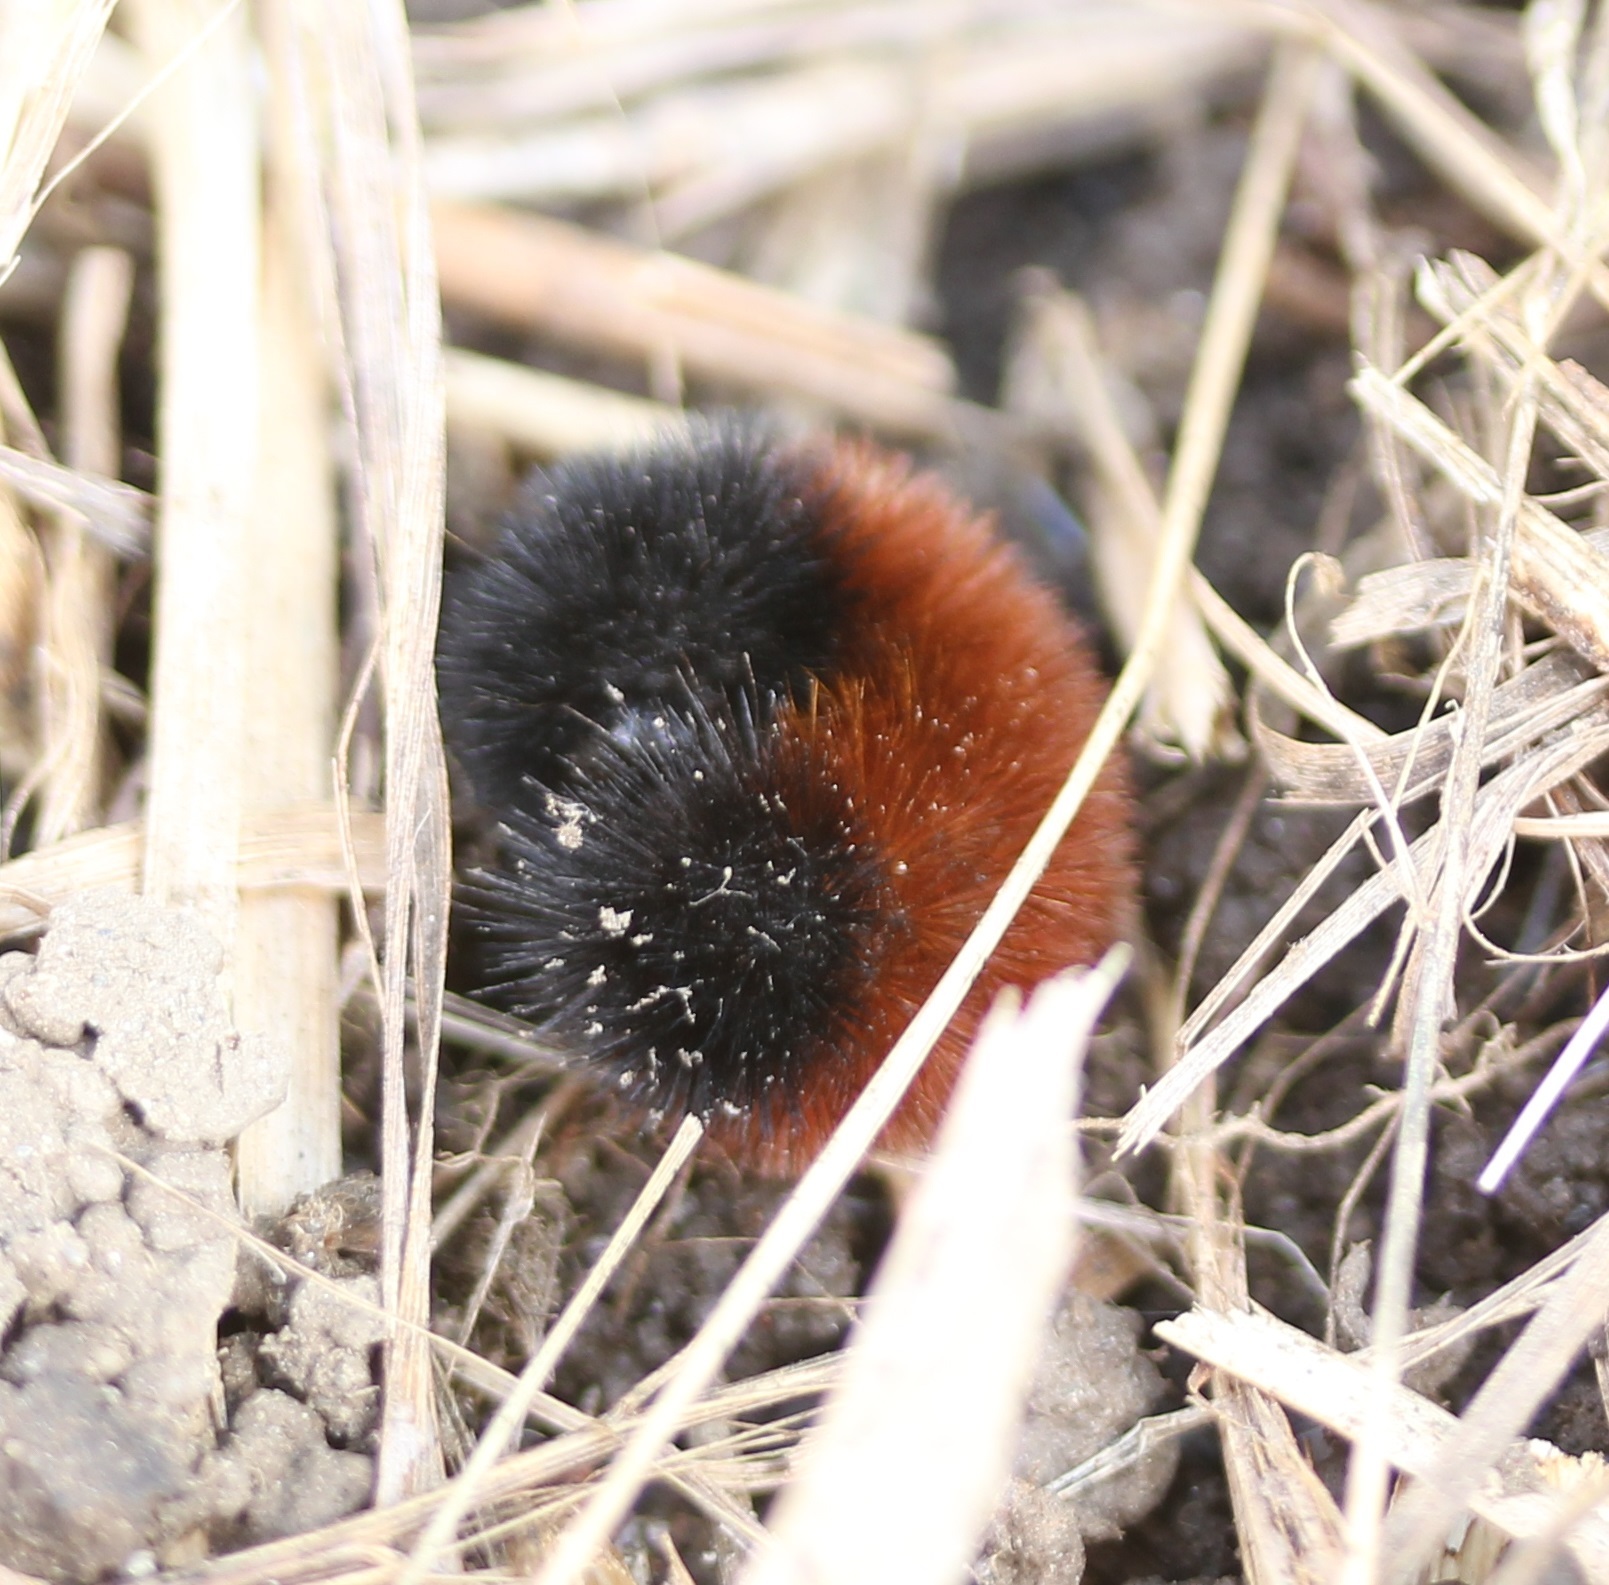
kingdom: Animalia
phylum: Arthropoda
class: Insecta
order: Lepidoptera
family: Erebidae
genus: Pyrrharctia
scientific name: Pyrrharctia isabella
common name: Isabella tiger moth
